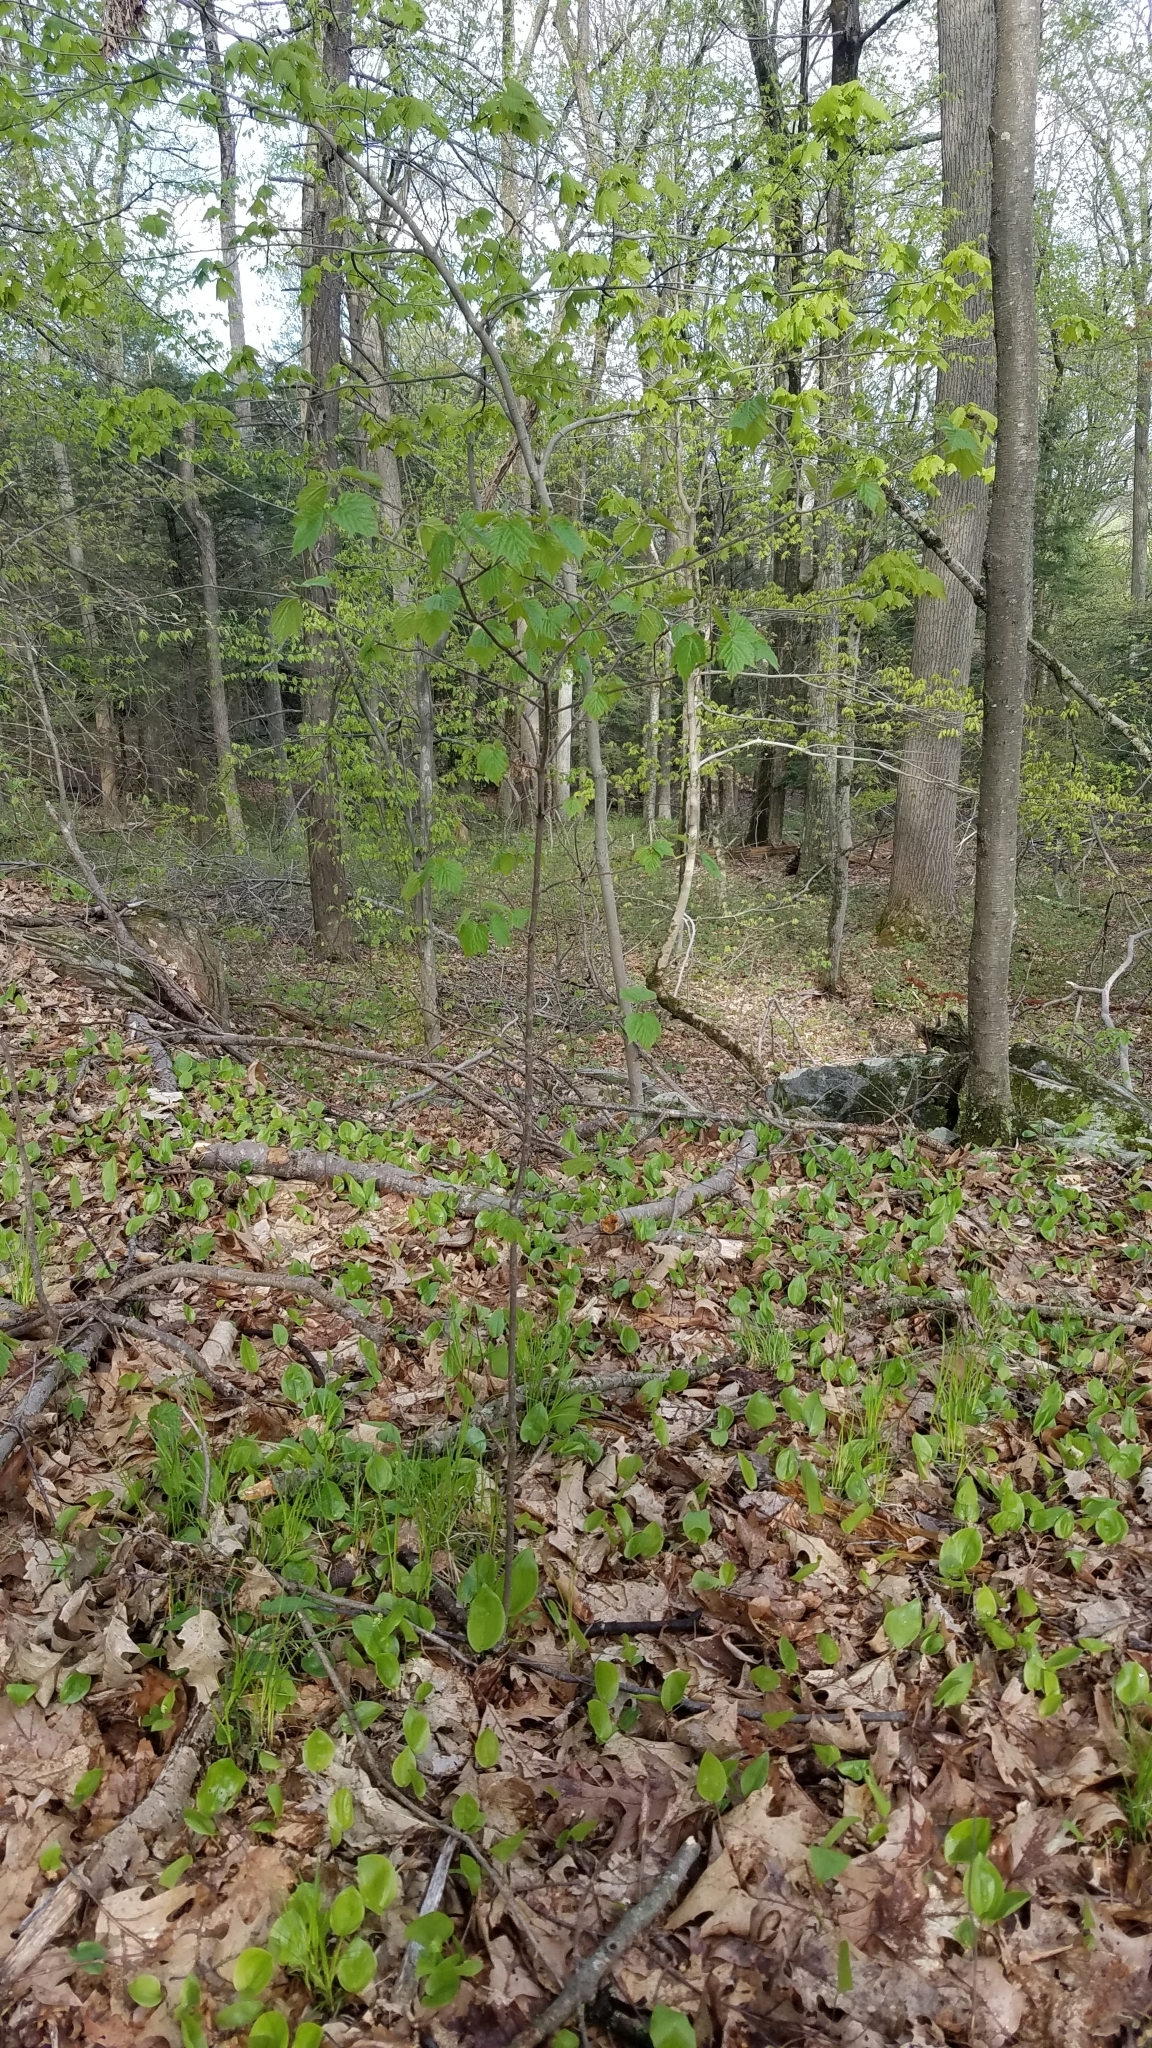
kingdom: Plantae
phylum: Tracheophyta
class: Magnoliopsida
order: Dipsacales
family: Viburnaceae
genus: Viburnum
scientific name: Viburnum acerifolium
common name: Dockmackie
